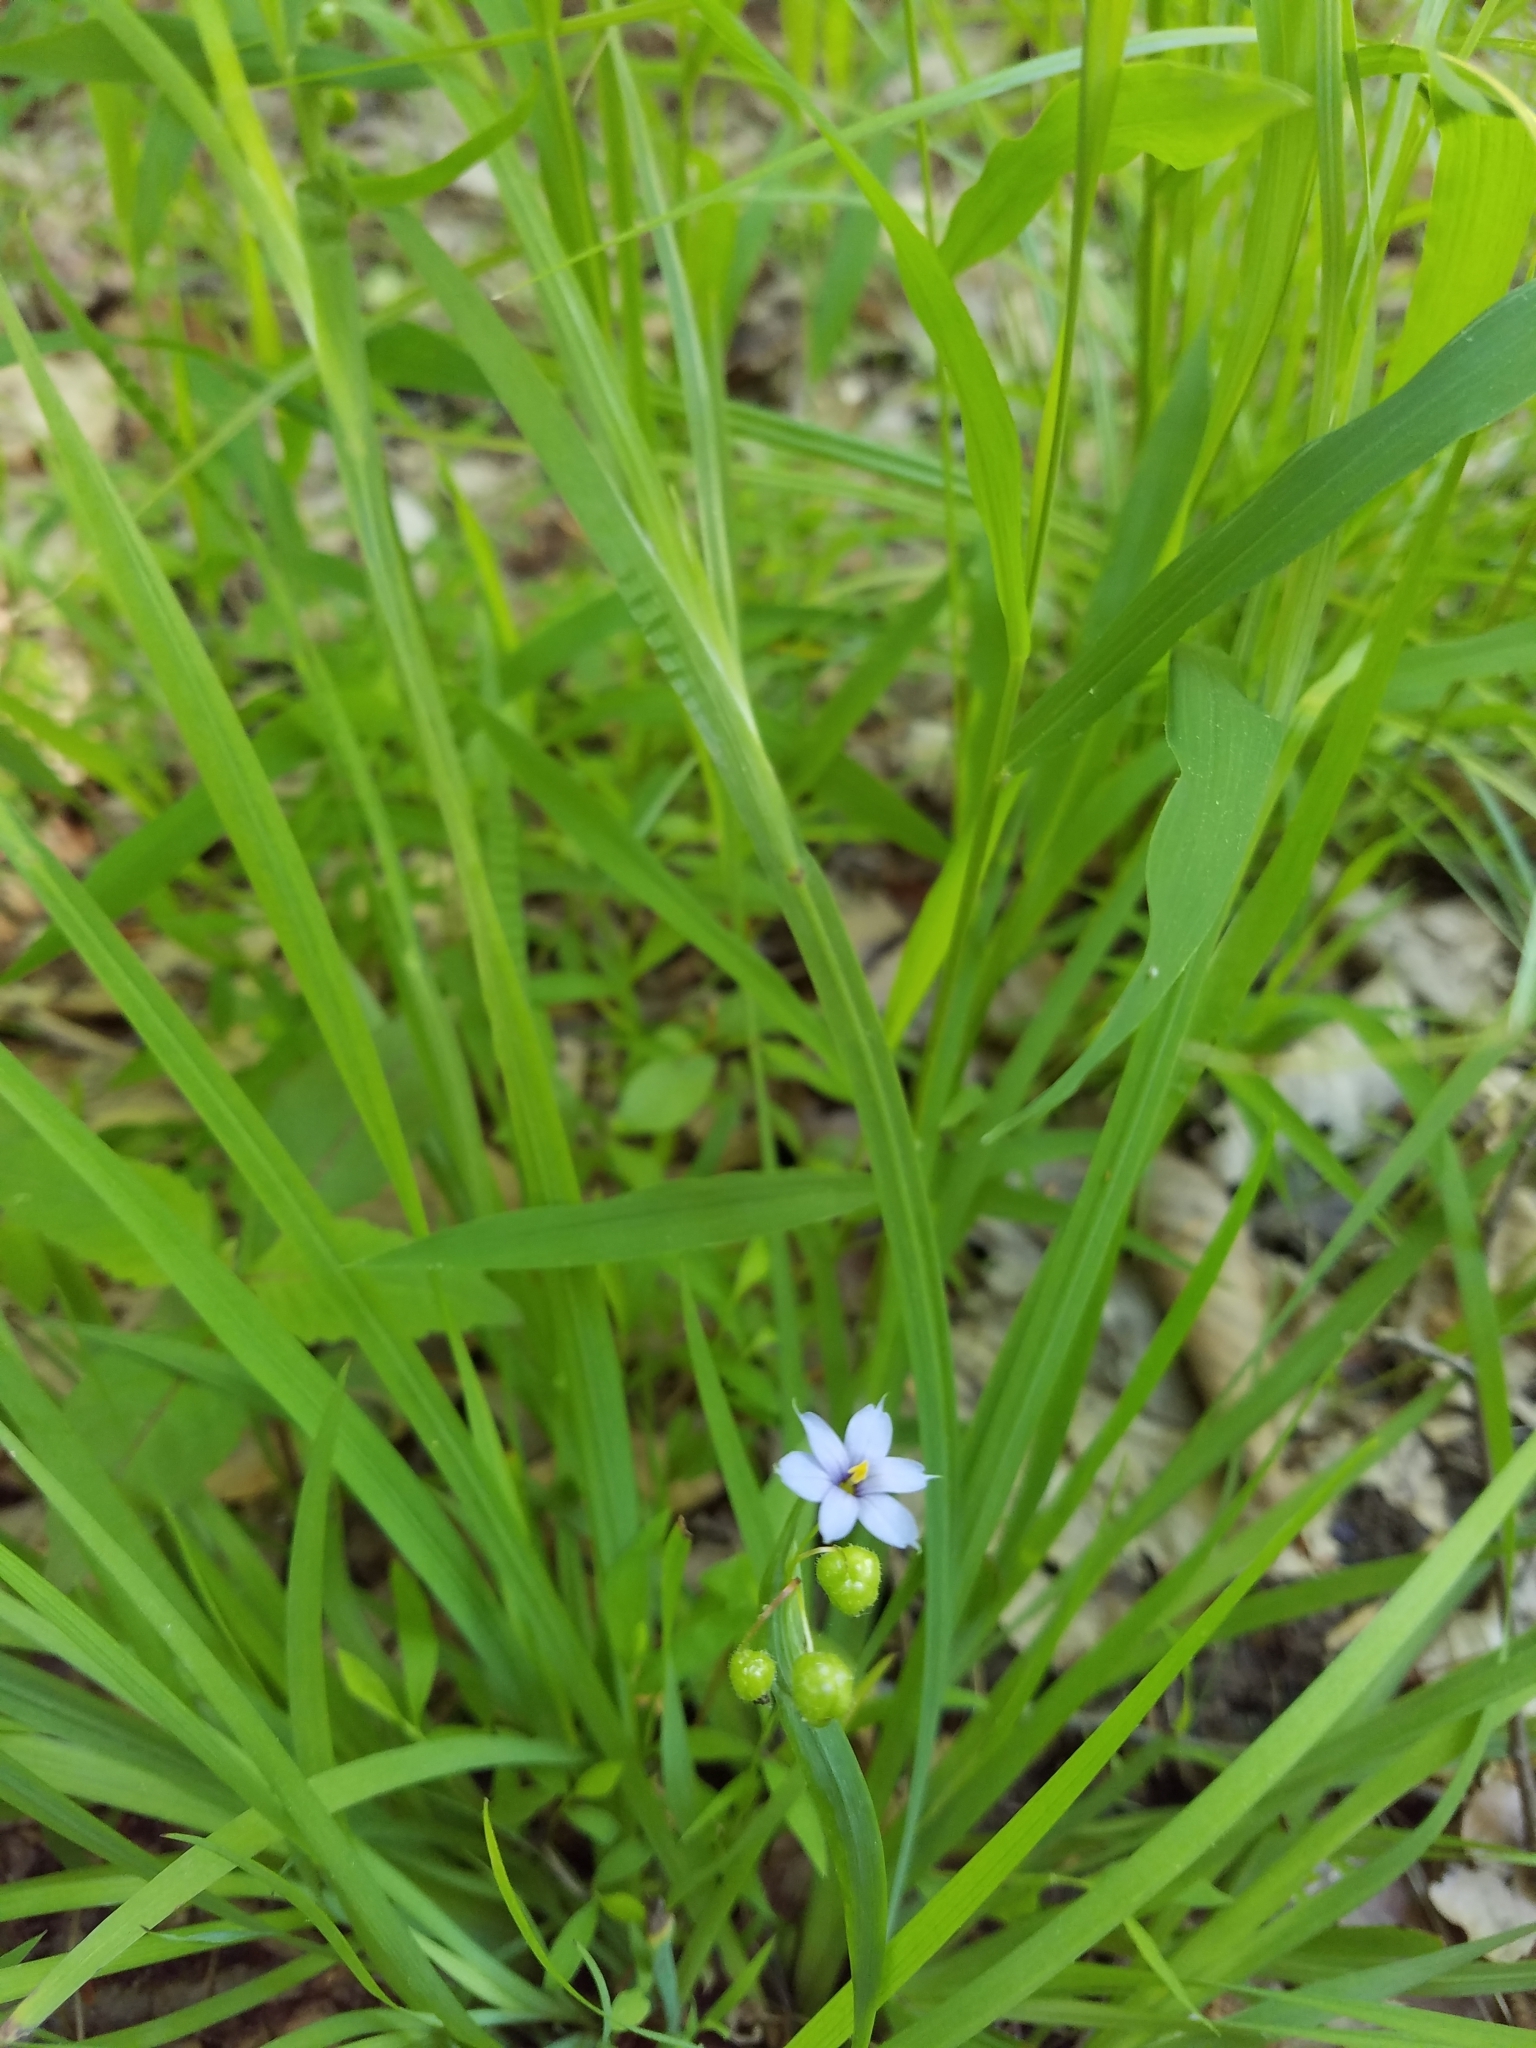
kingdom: Plantae
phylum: Tracheophyta
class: Liliopsida
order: Asparagales
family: Iridaceae
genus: Sisyrinchium
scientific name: Sisyrinchium atlanticum
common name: Eastern blue-eyed-grass
